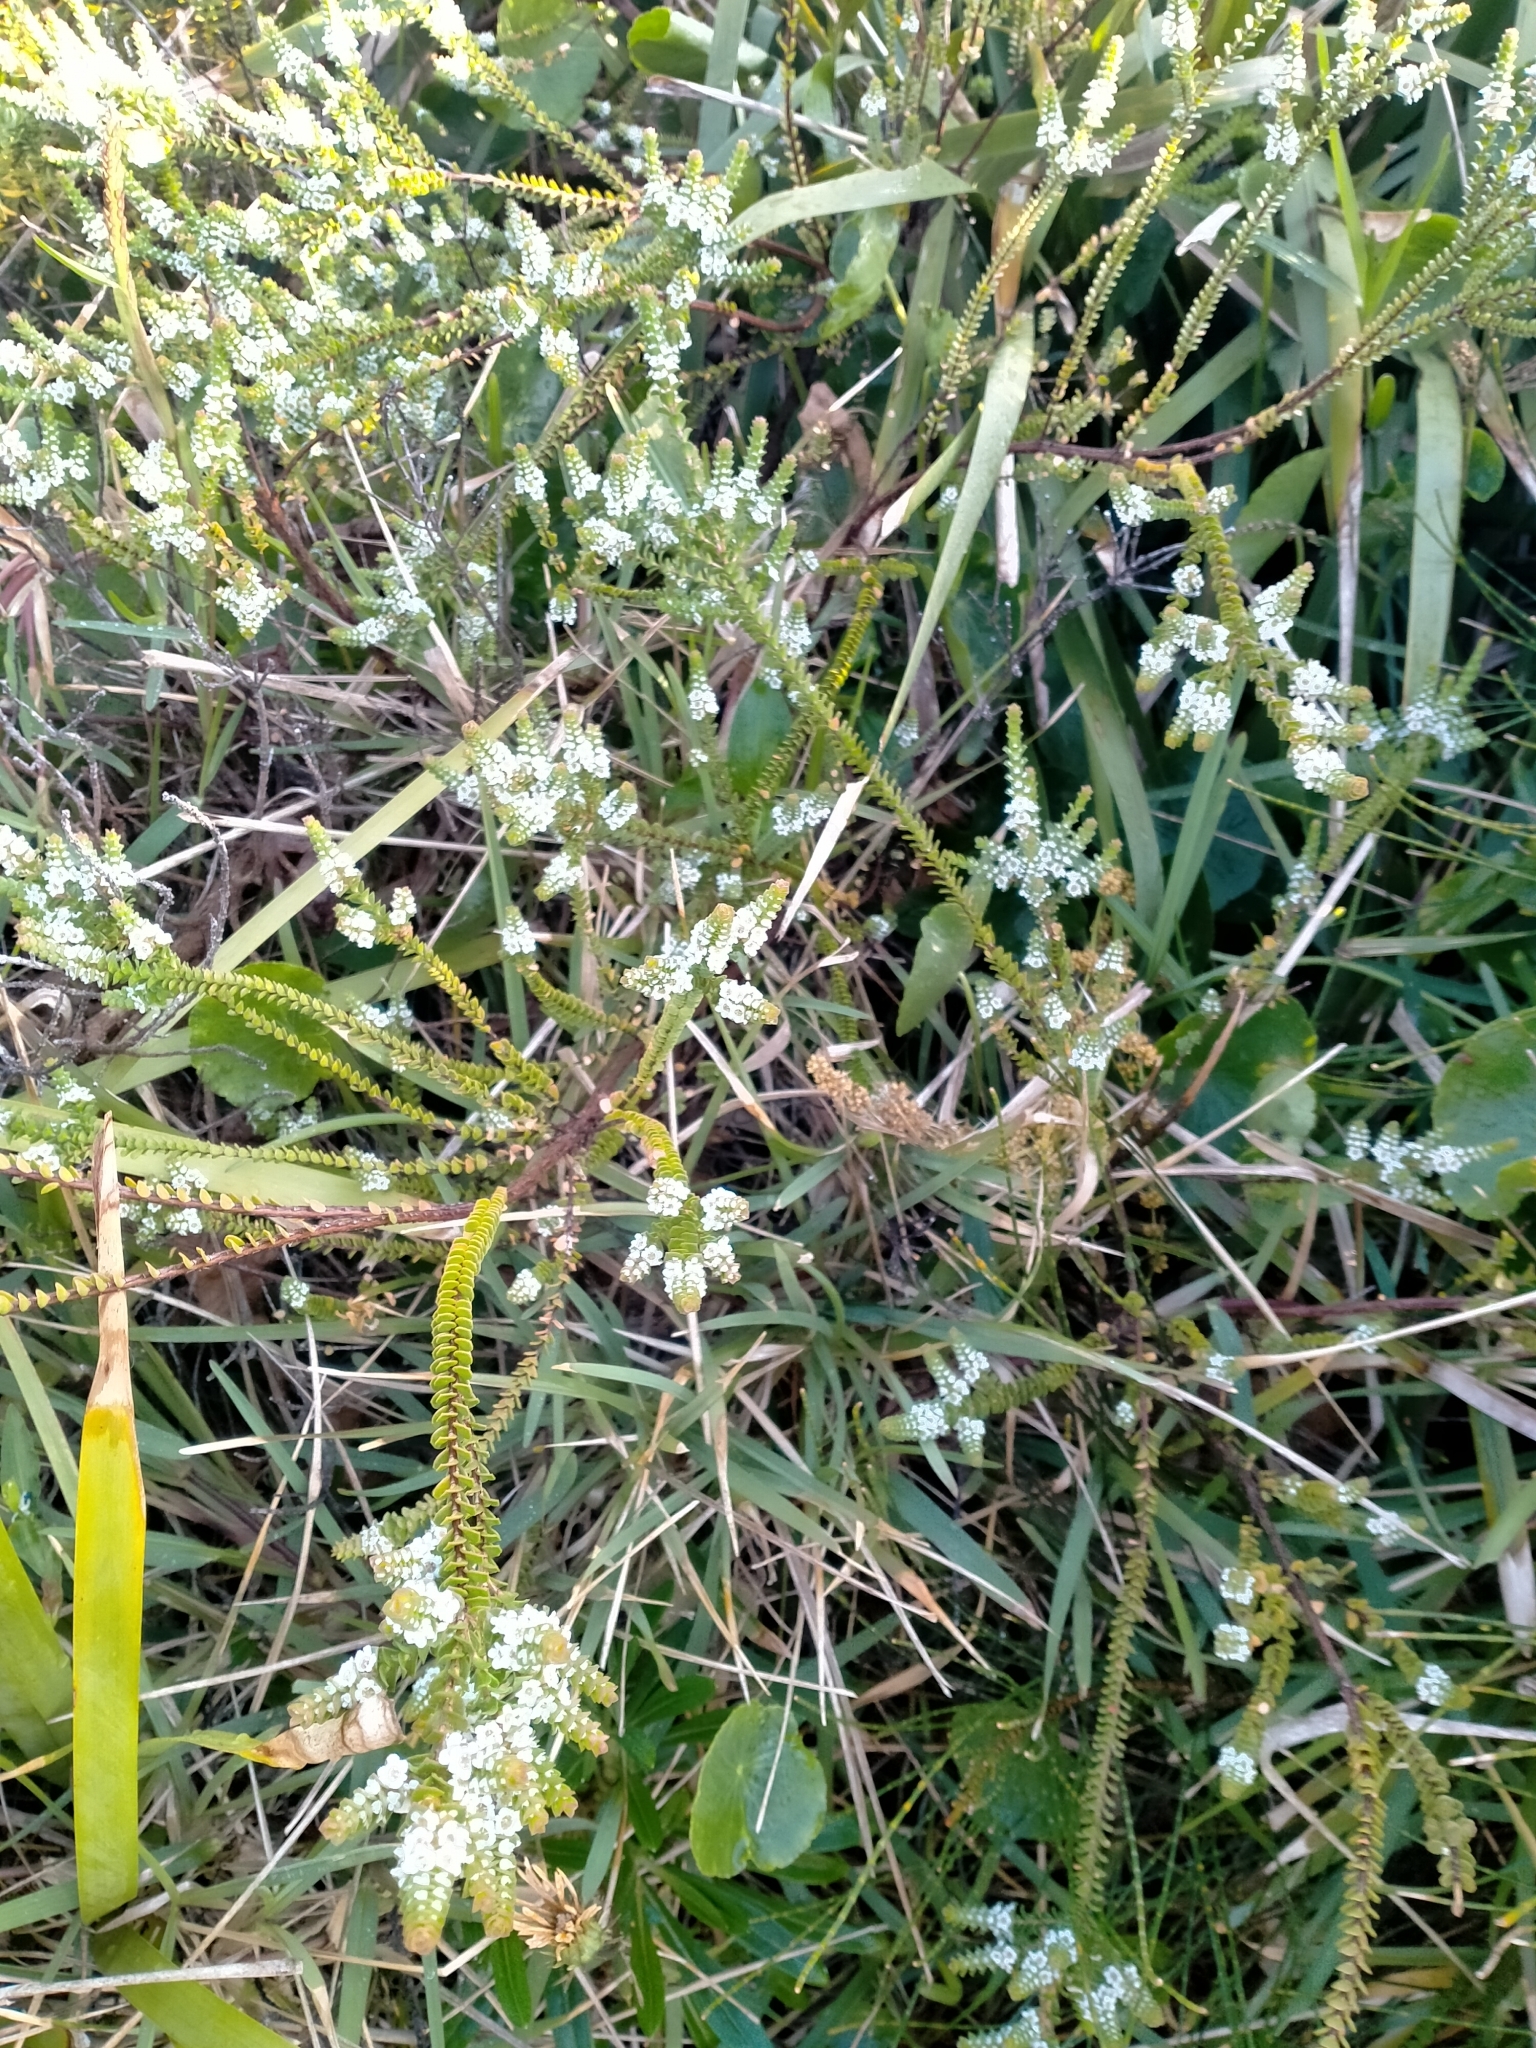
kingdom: Plantae
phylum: Tracheophyta
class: Magnoliopsida
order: Myrtales
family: Myrtaceae
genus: Baeckea
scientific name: Baeckea imbricata
